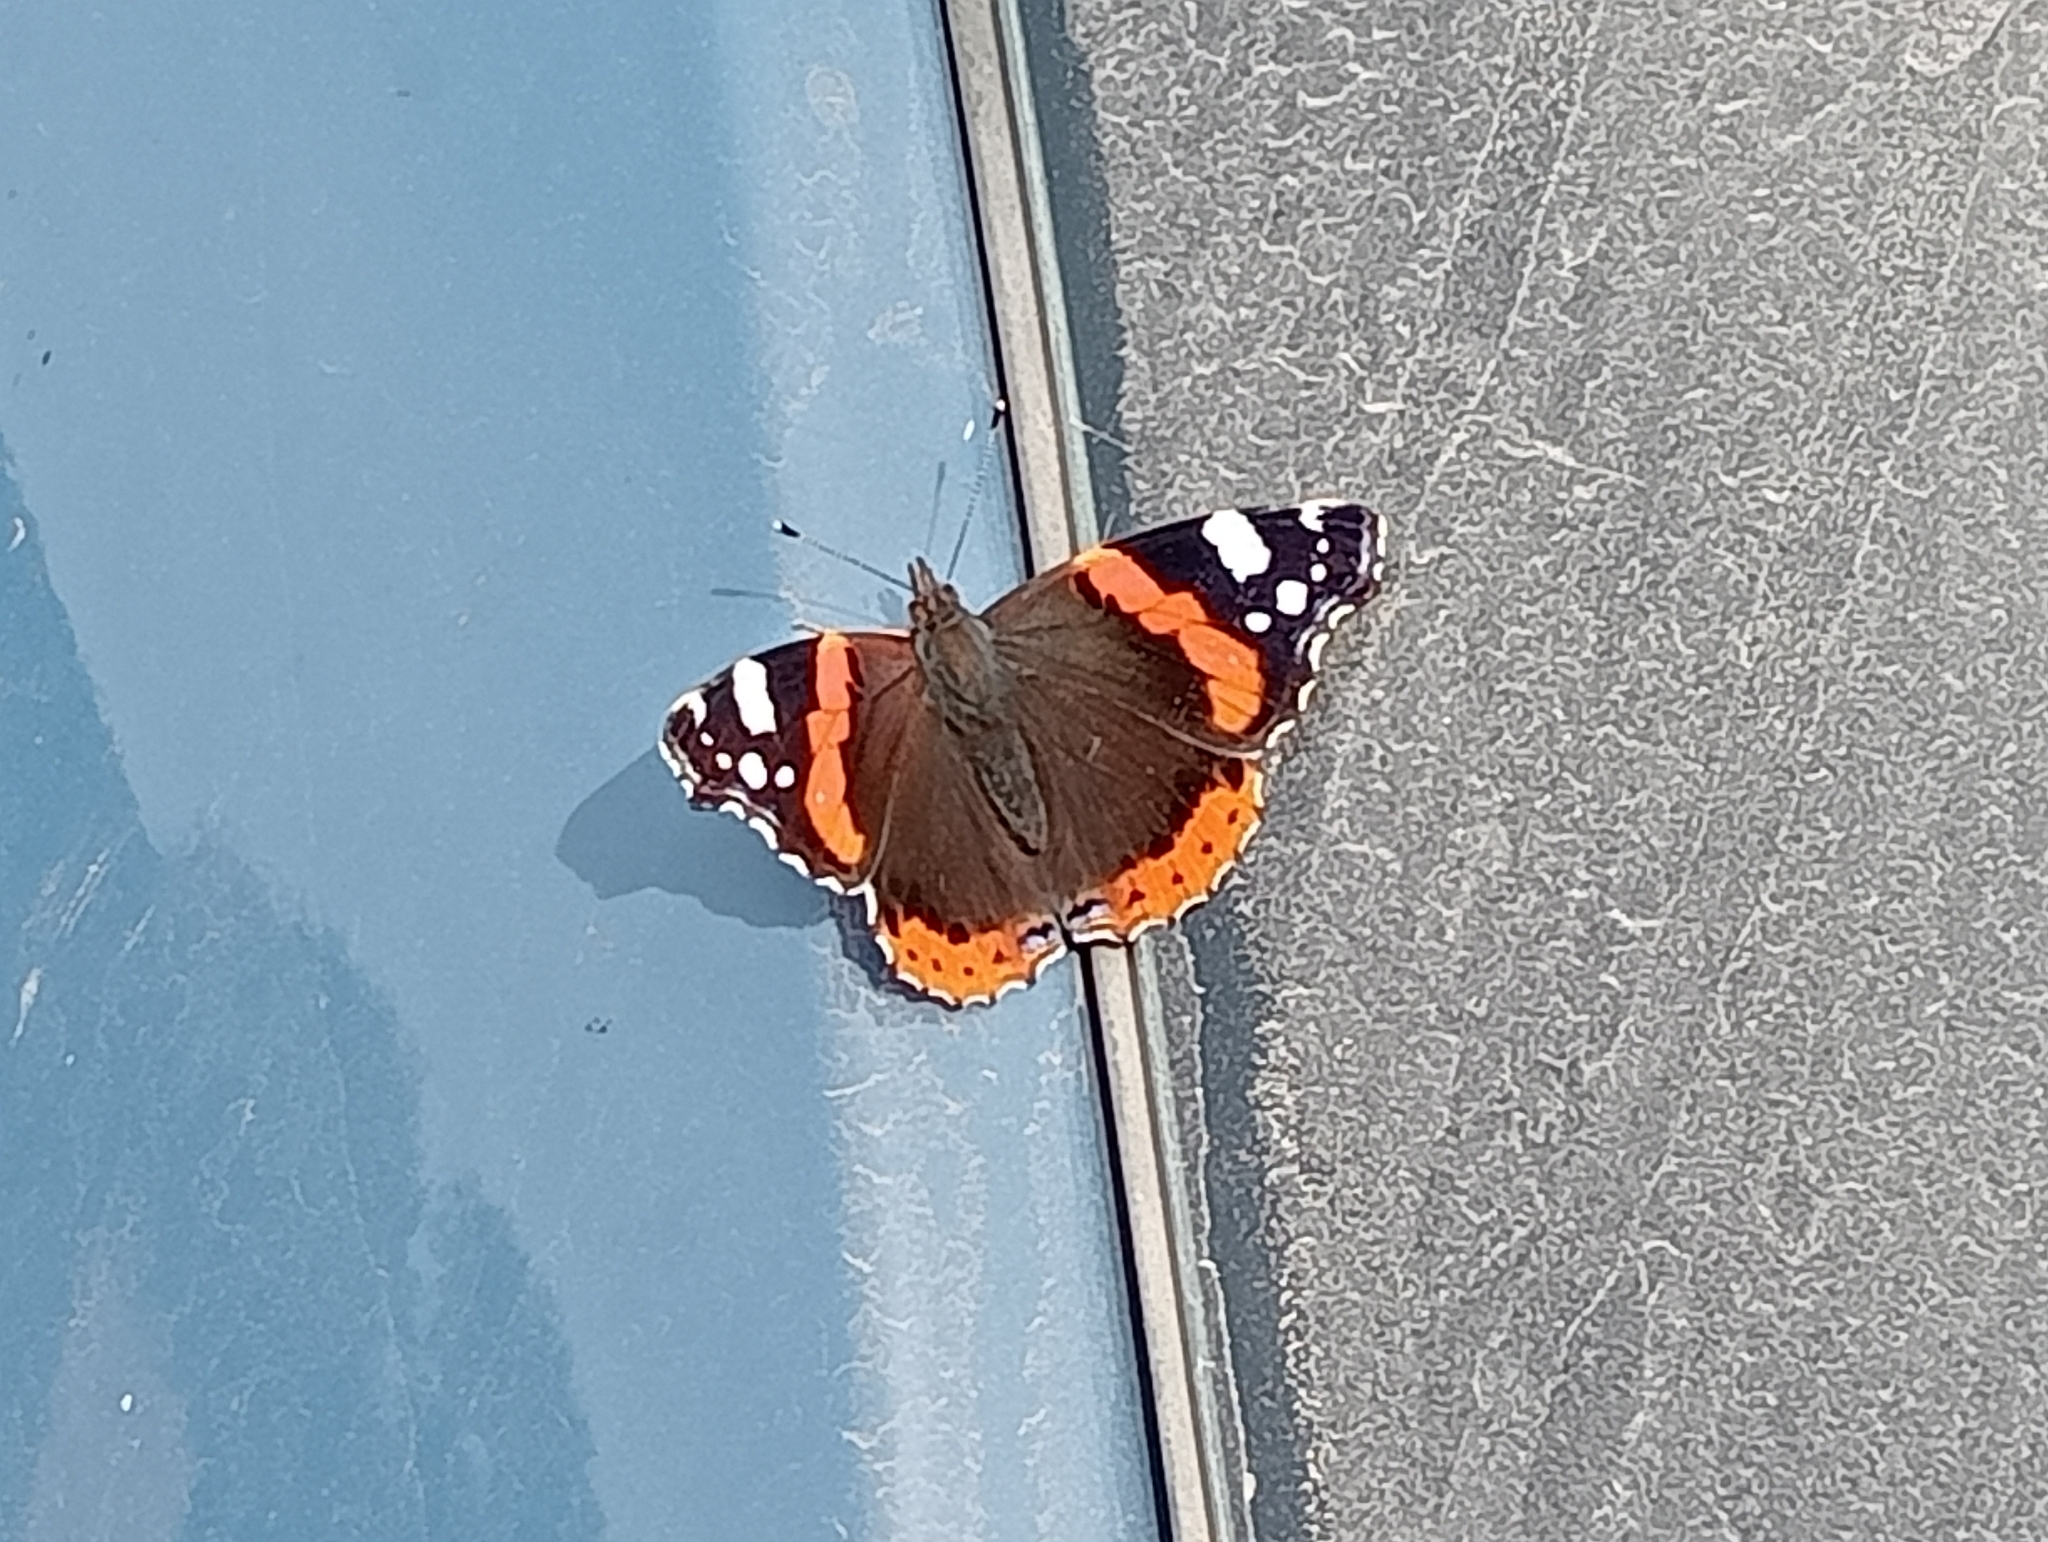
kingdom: Animalia
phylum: Arthropoda
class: Insecta
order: Lepidoptera
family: Nymphalidae
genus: Vanessa
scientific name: Vanessa atalanta
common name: Red admiral
